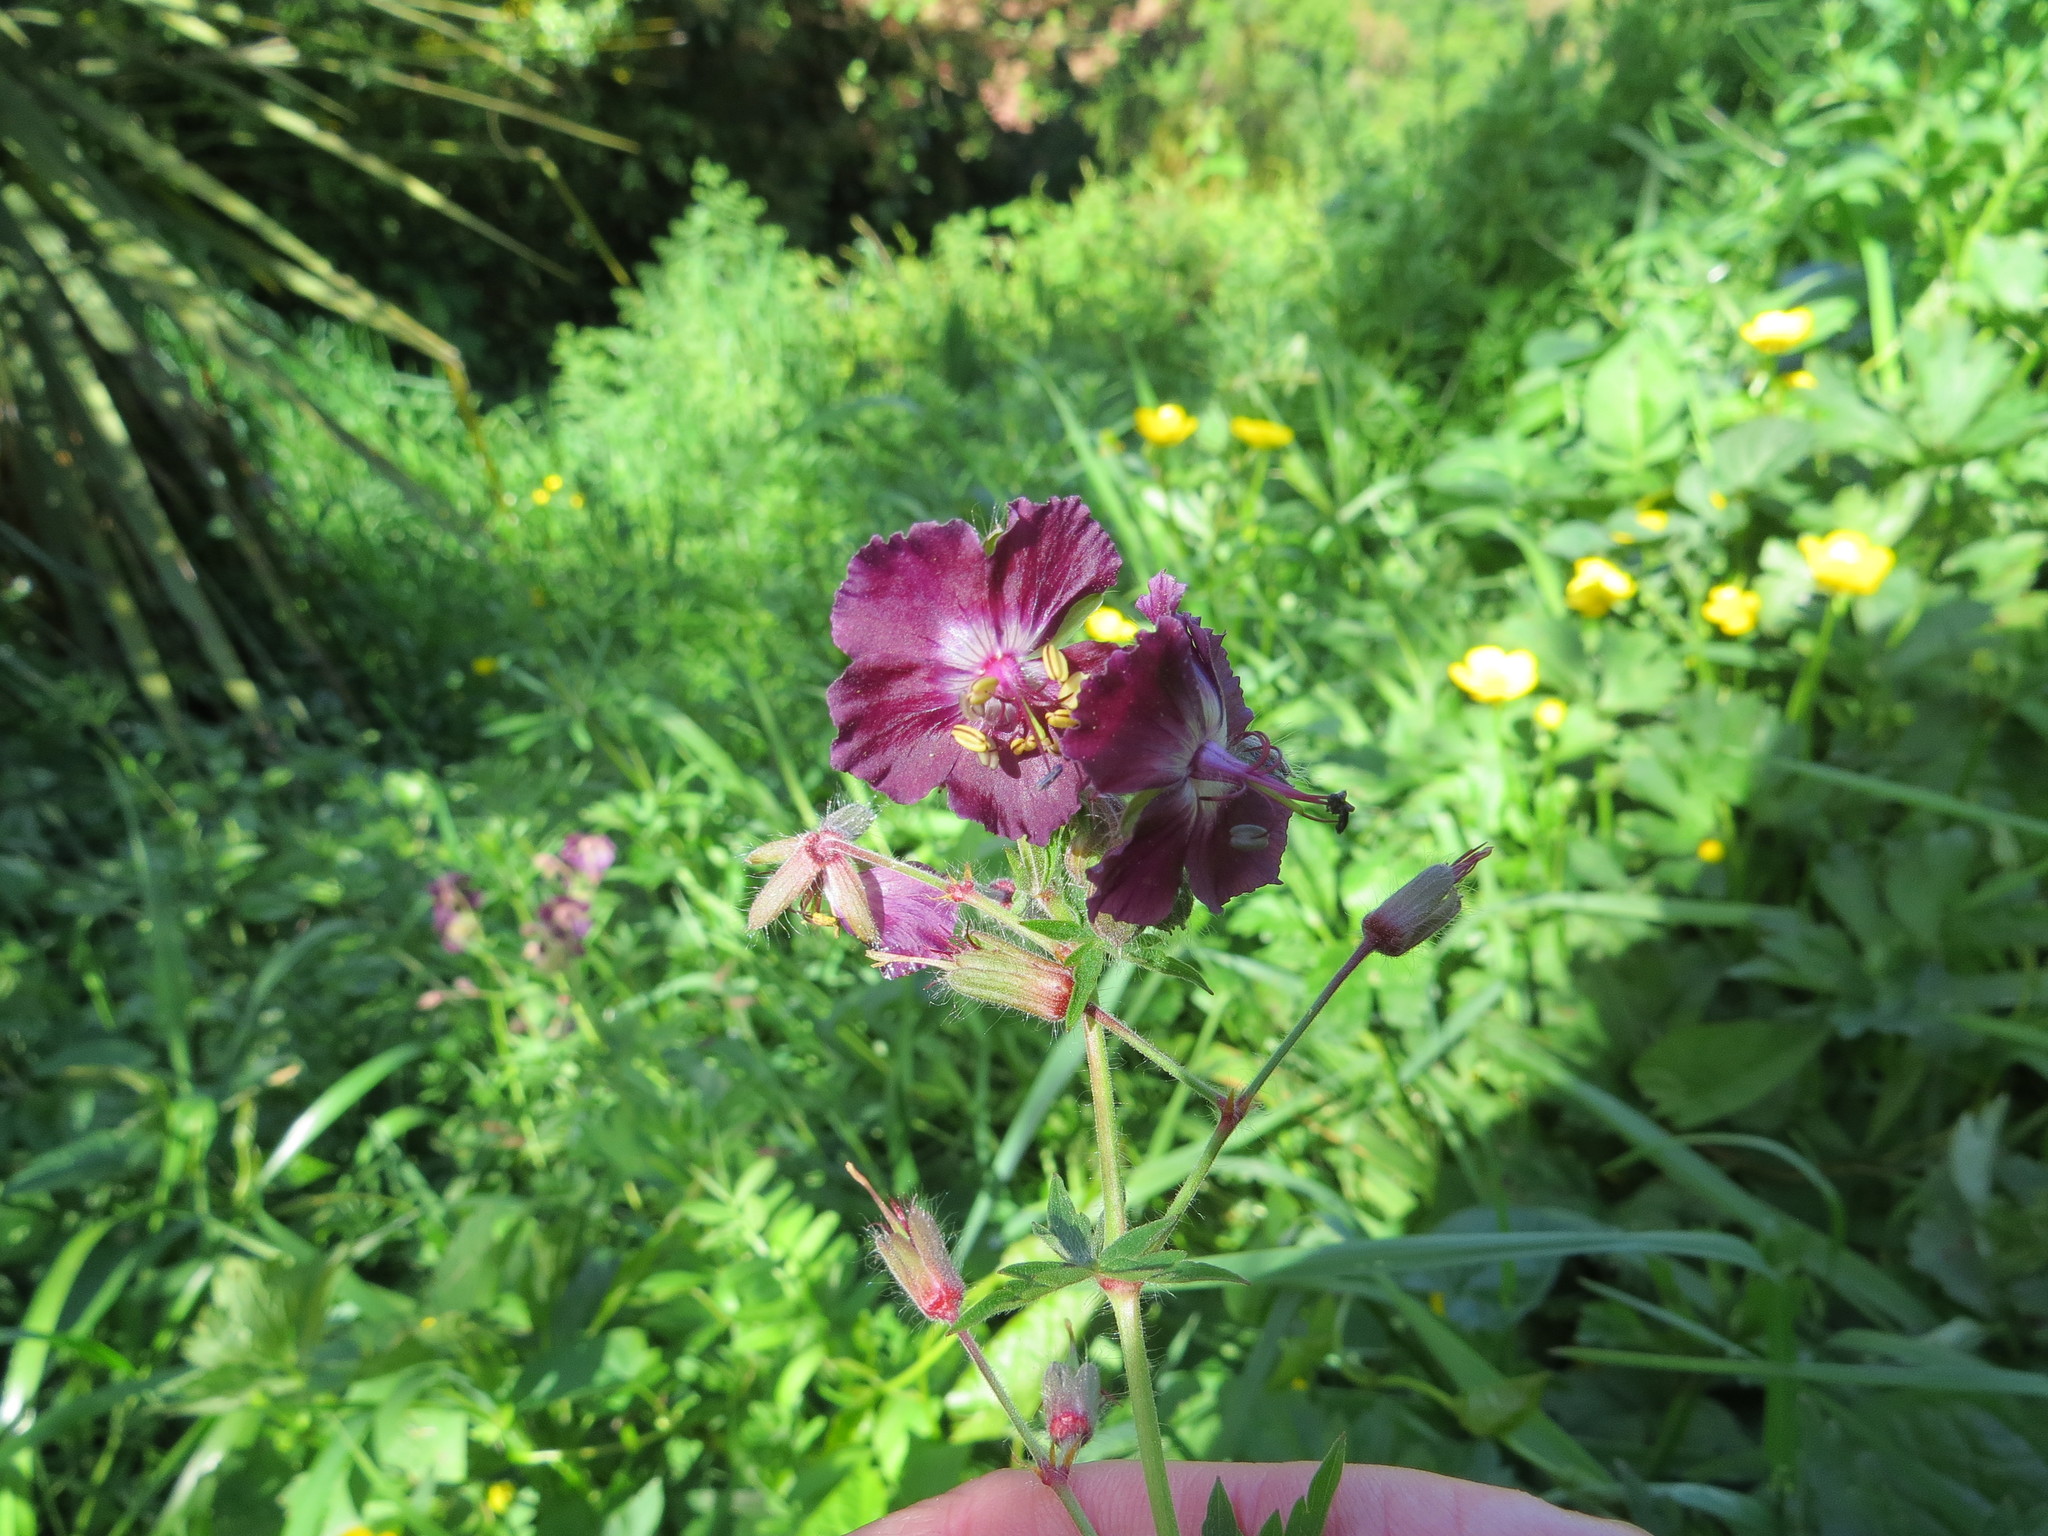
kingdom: Plantae
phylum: Tracheophyta
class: Magnoliopsida
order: Geraniales
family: Geraniaceae
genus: Geranium
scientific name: Geranium phaeum
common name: Dusky crane's-bill
